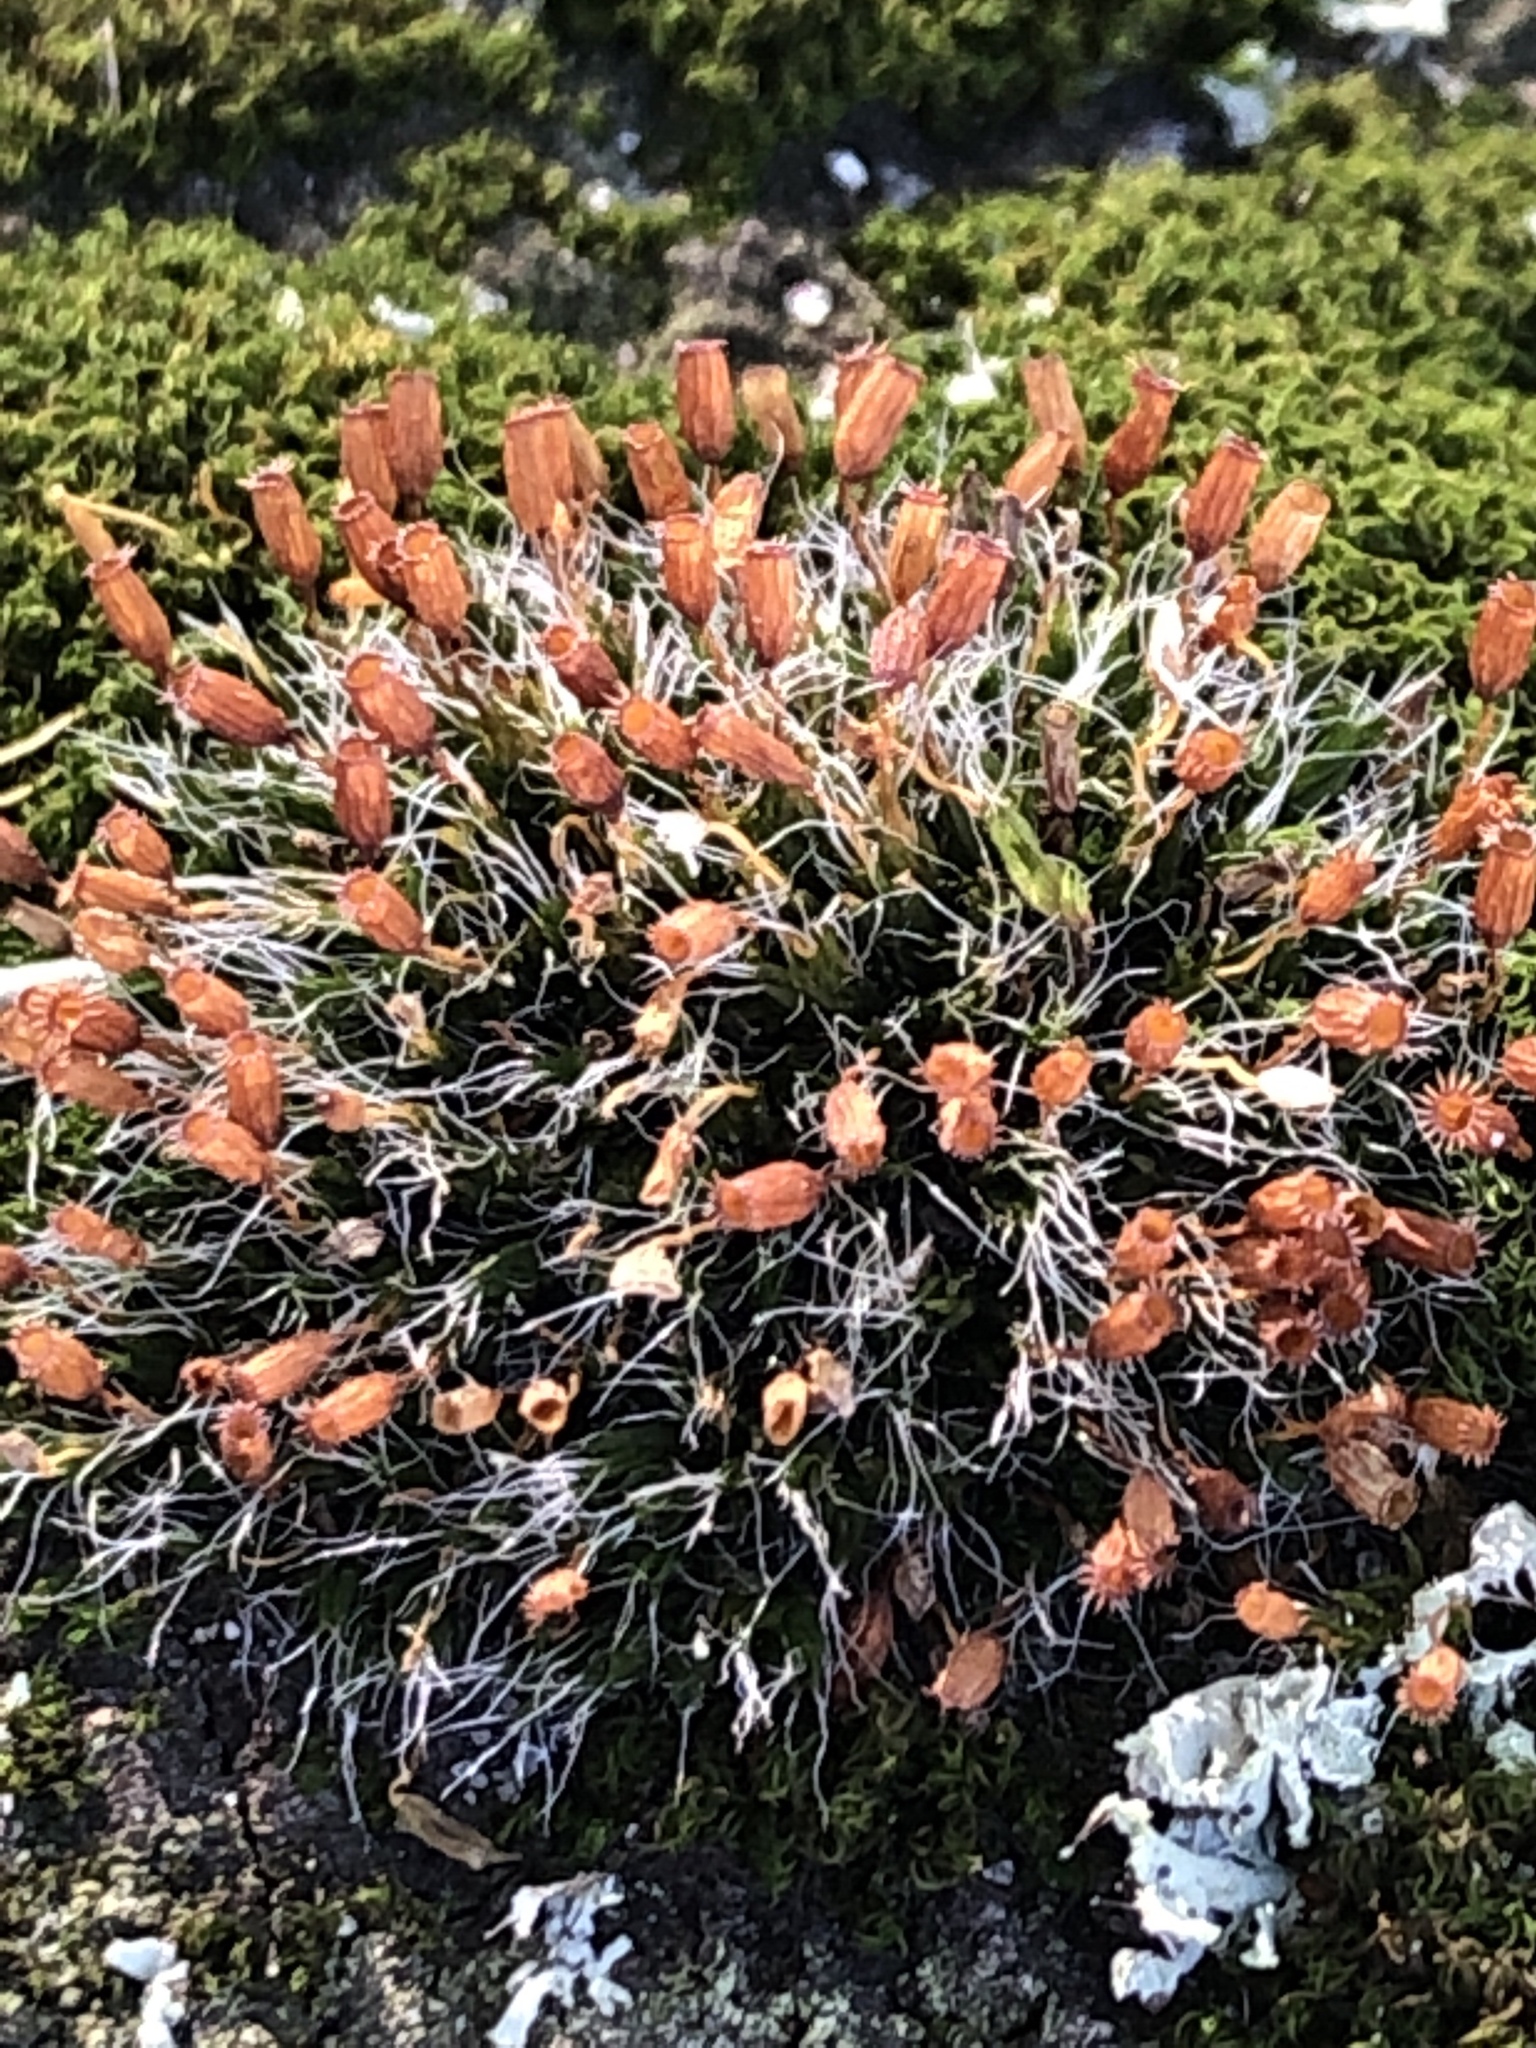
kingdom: Plantae
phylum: Bryophyta
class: Bryopsida
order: Grimmiales
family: Grimmiaceae
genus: Grimmia
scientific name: Grimmia pulvinata
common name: Grey-cushioned grimmia
